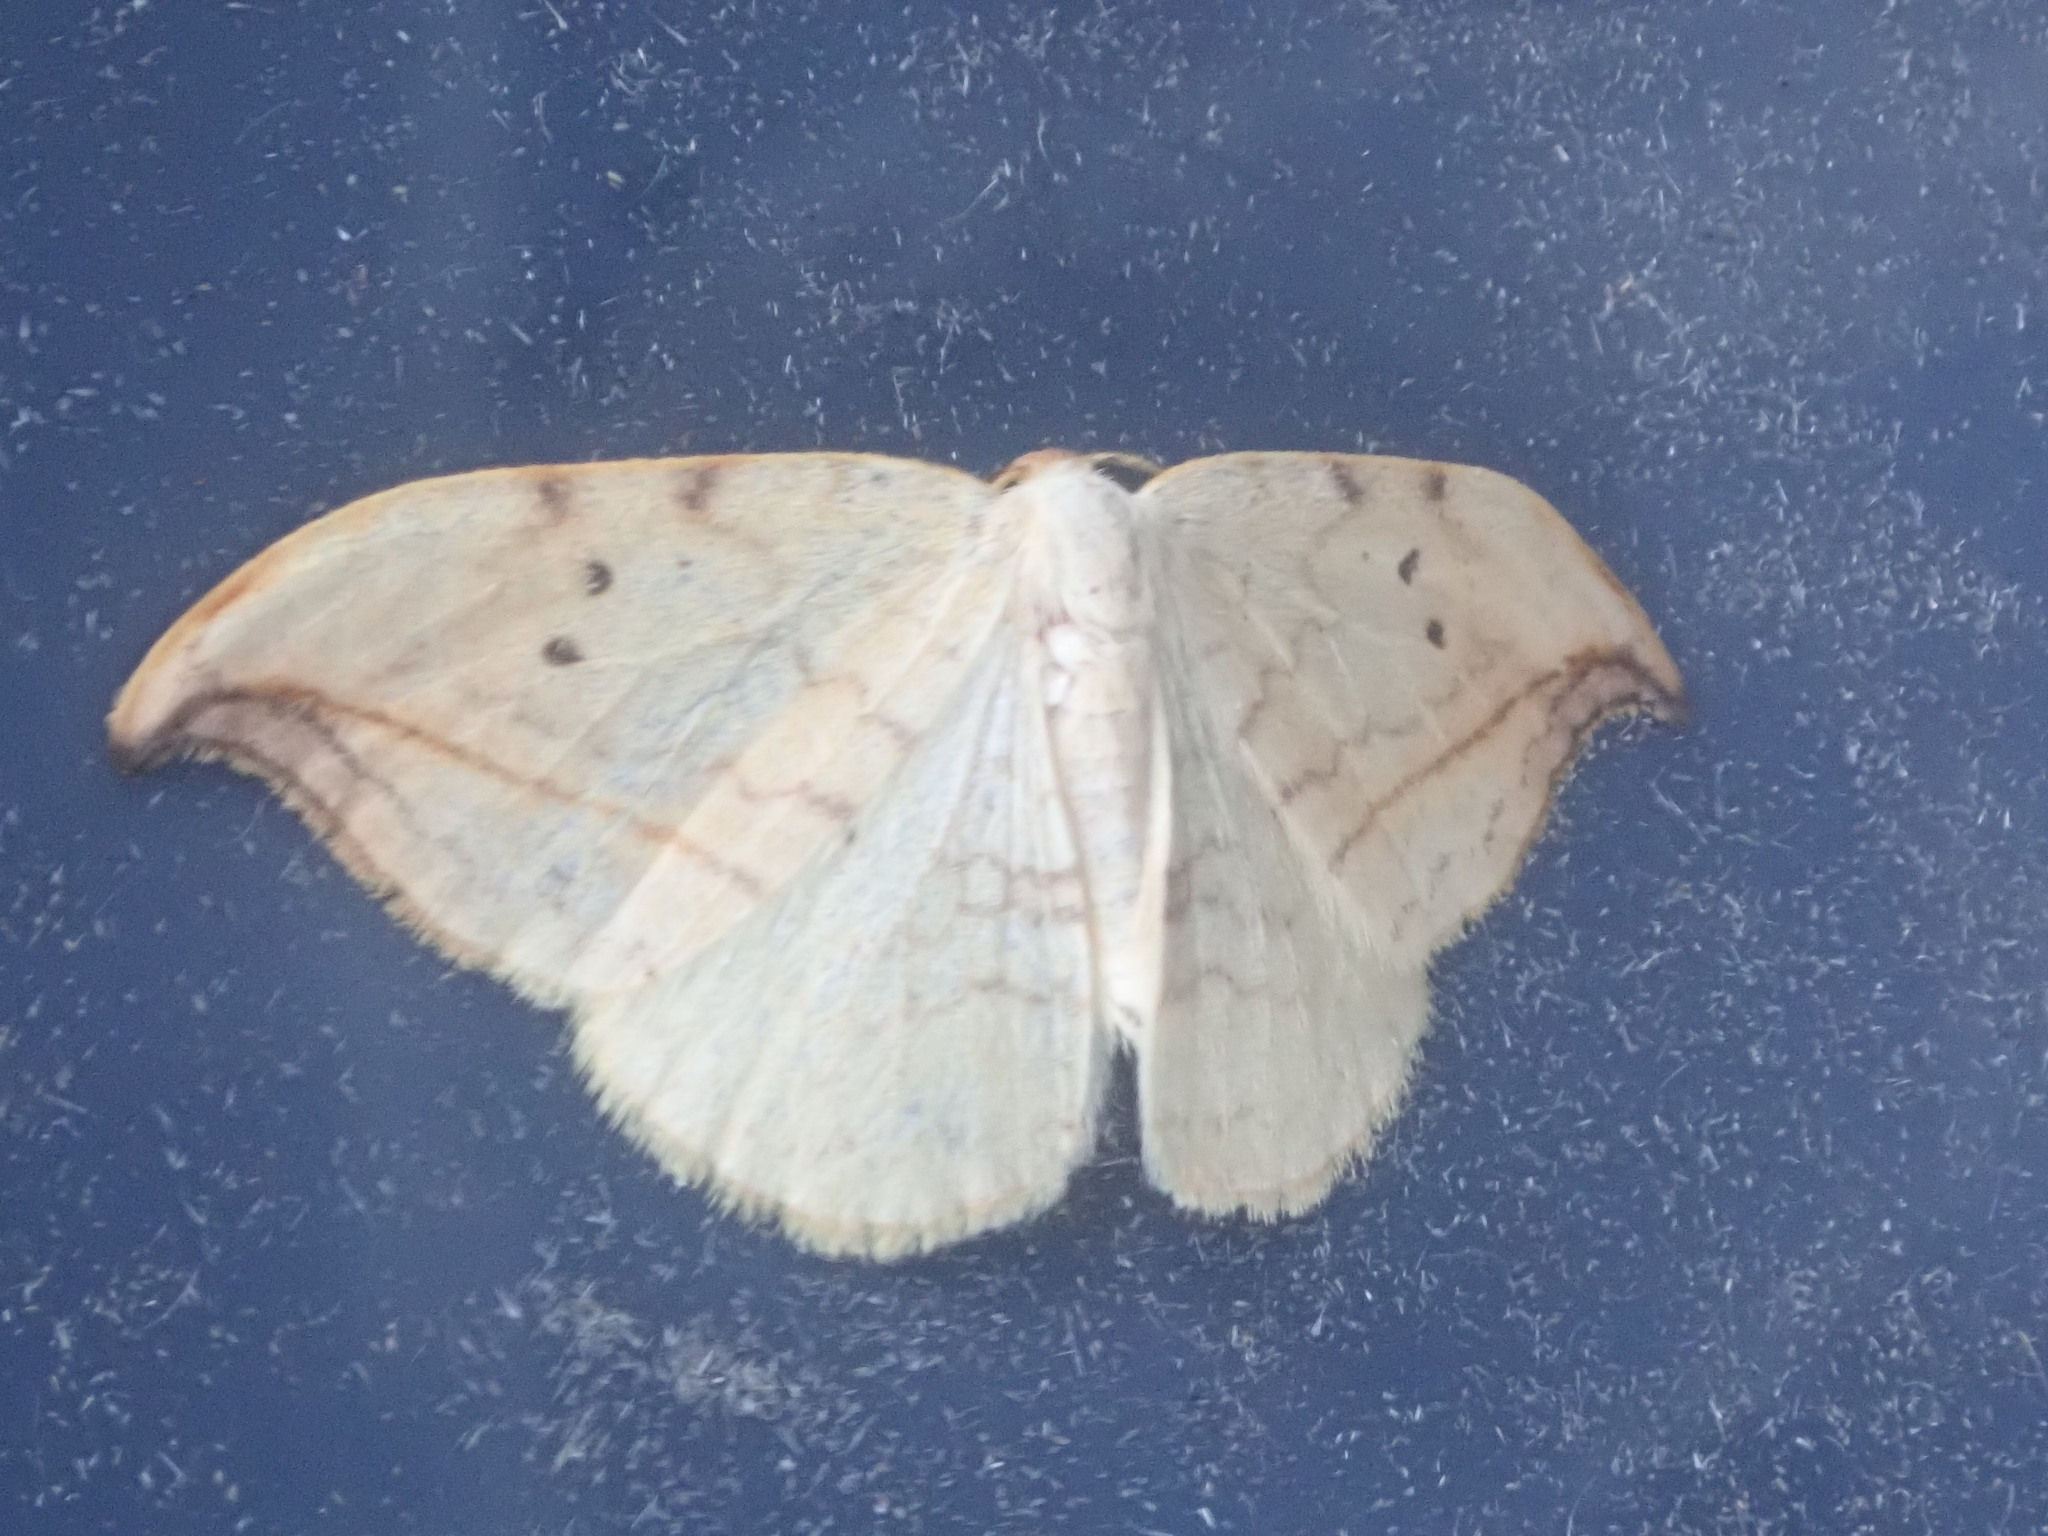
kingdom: Animalia
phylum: Arthropoda
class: Insecta
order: Lepidoptera
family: Drepanidae
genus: Drepana
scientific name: Drepana arcuata
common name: Arched hooktip moth
